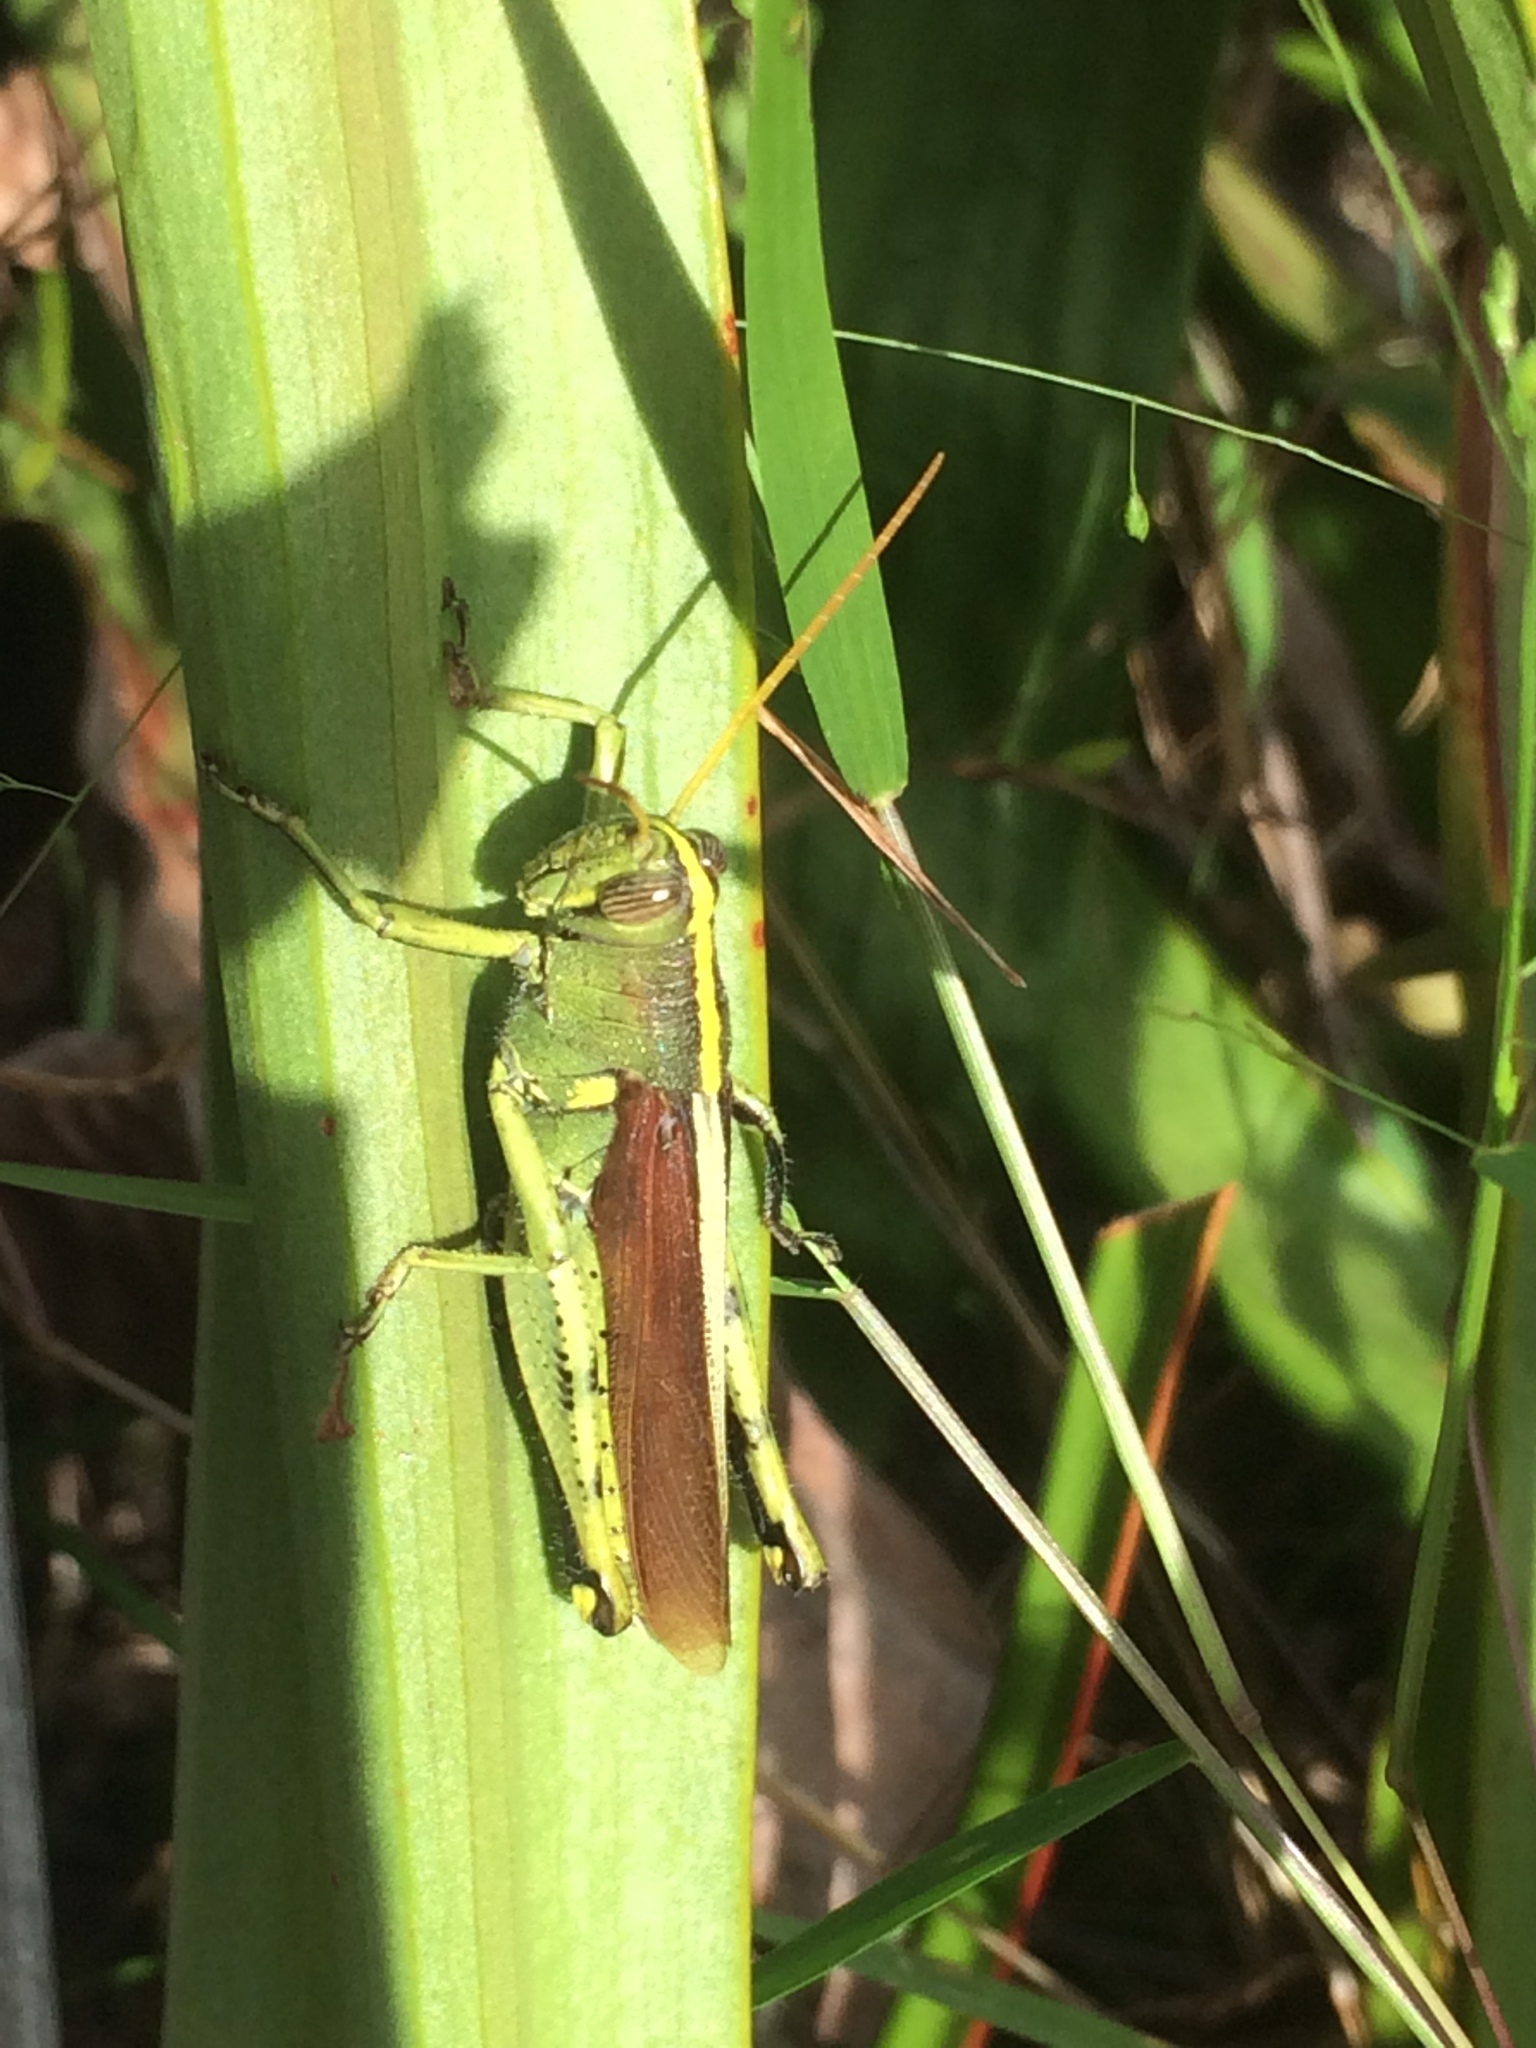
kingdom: Animalia
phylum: Arthropoda
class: Insecta
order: Orthoptera
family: Acrididae
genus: Schistocerca
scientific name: Schistocerca obscura
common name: Obscure bird grasshopper
